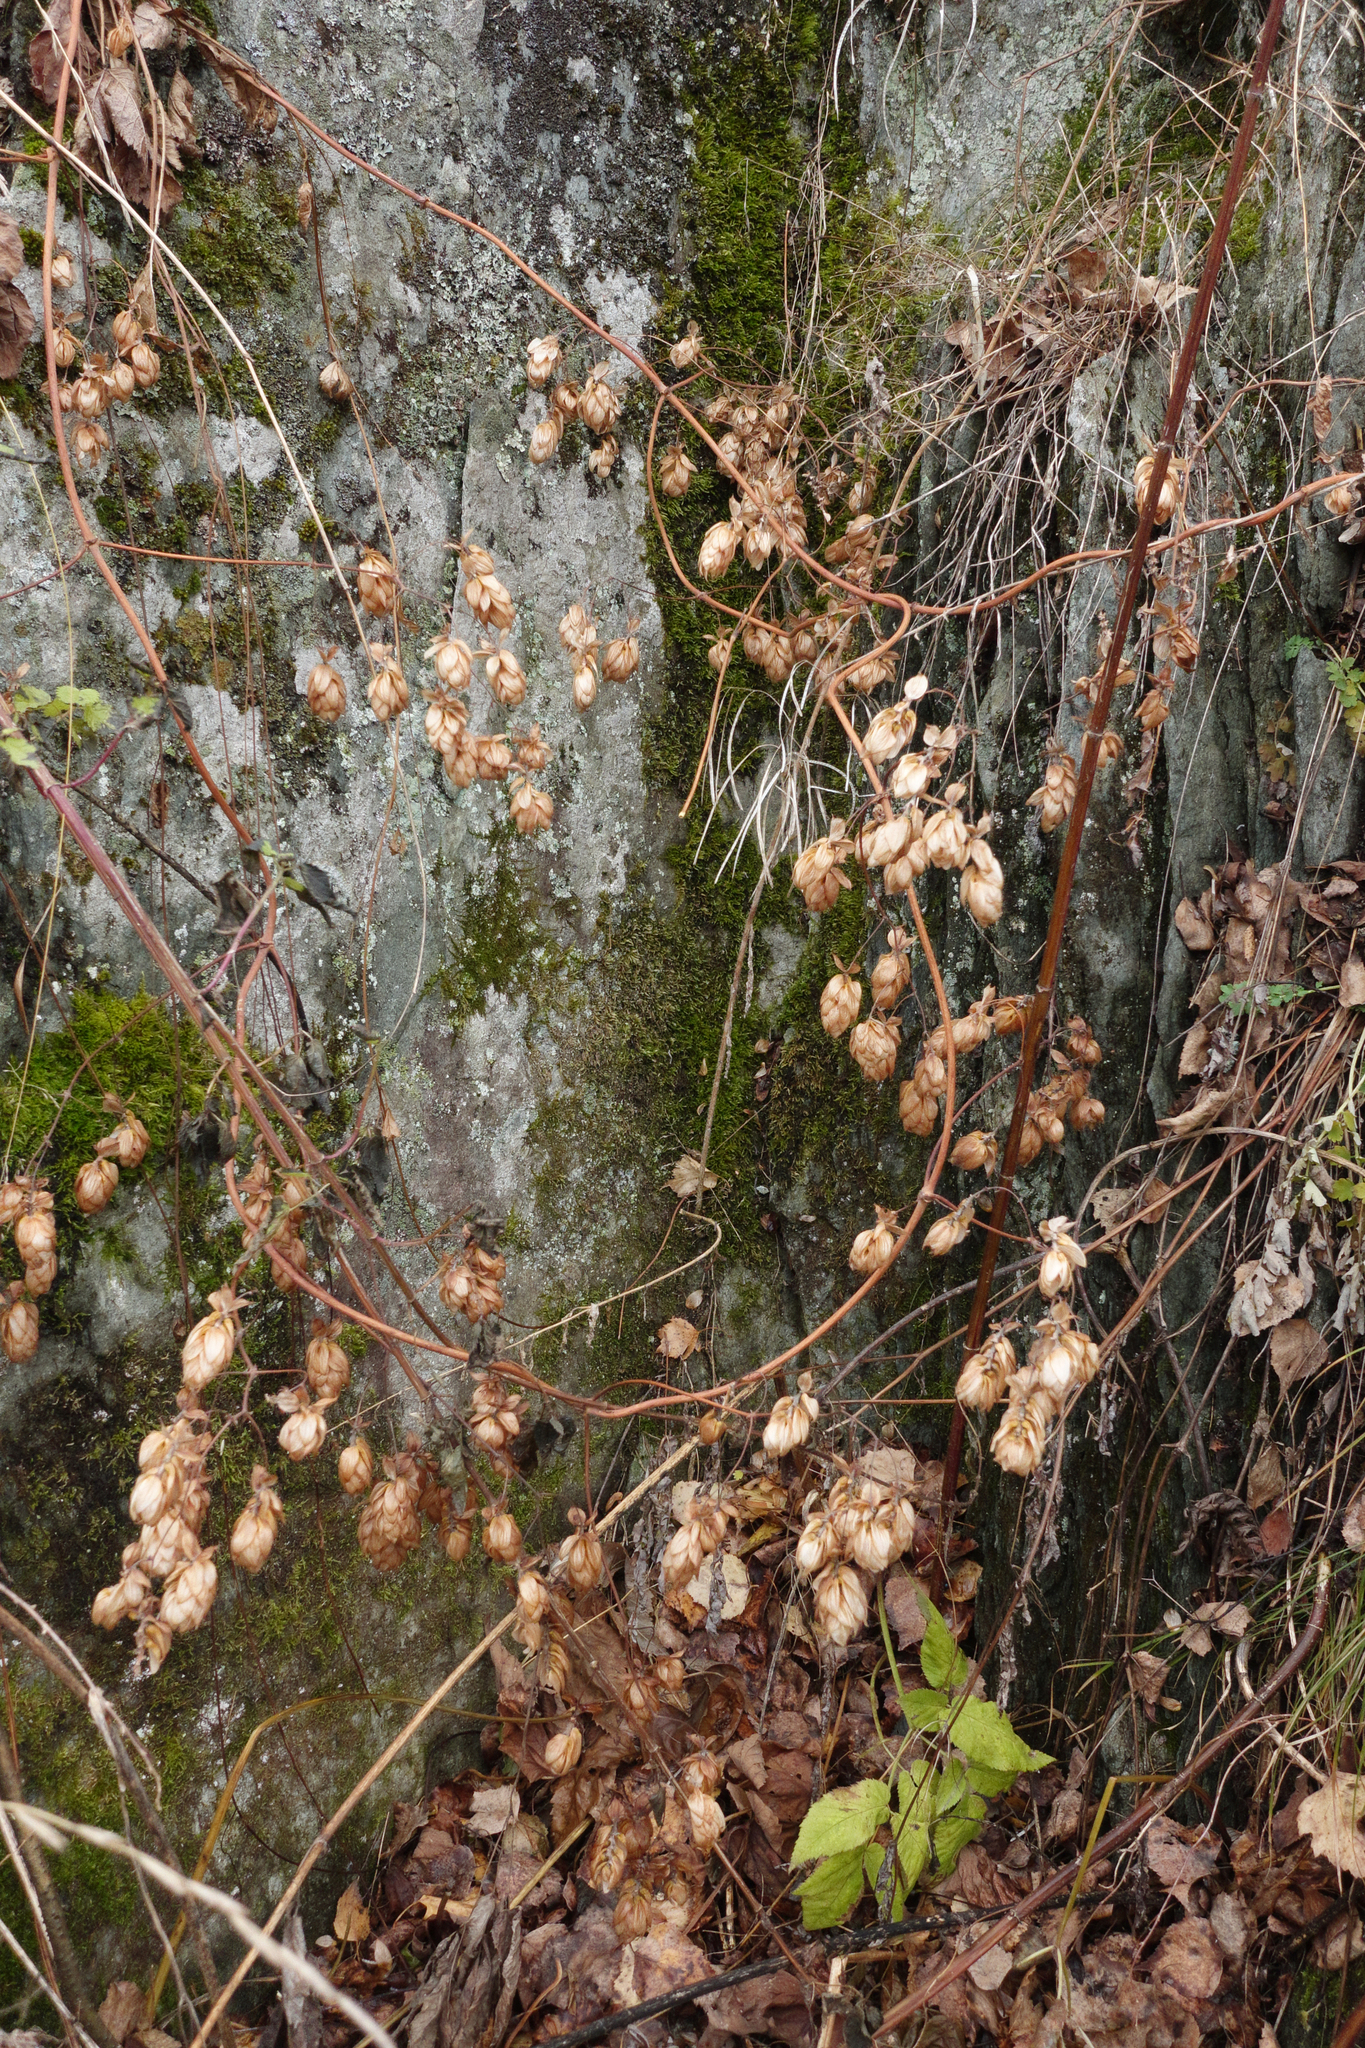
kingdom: Plantae
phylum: Tracheophyta
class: Magnoliopsida
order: Rosales
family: Cannabaceae
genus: Humulus
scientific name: Humulus lupulus
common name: Hop
